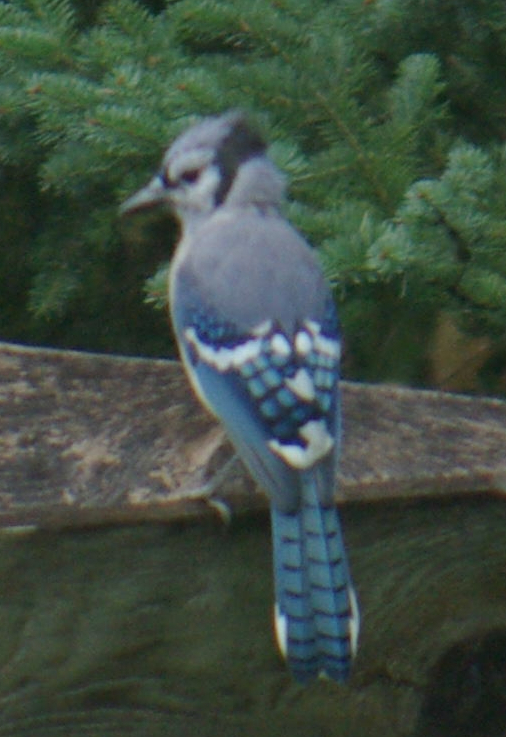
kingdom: Animalia
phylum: Chordata
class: Aves
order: Passeriformes
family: Corvidae
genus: Cyanocitta
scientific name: Cyanocitta cristata
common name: Blue jay
